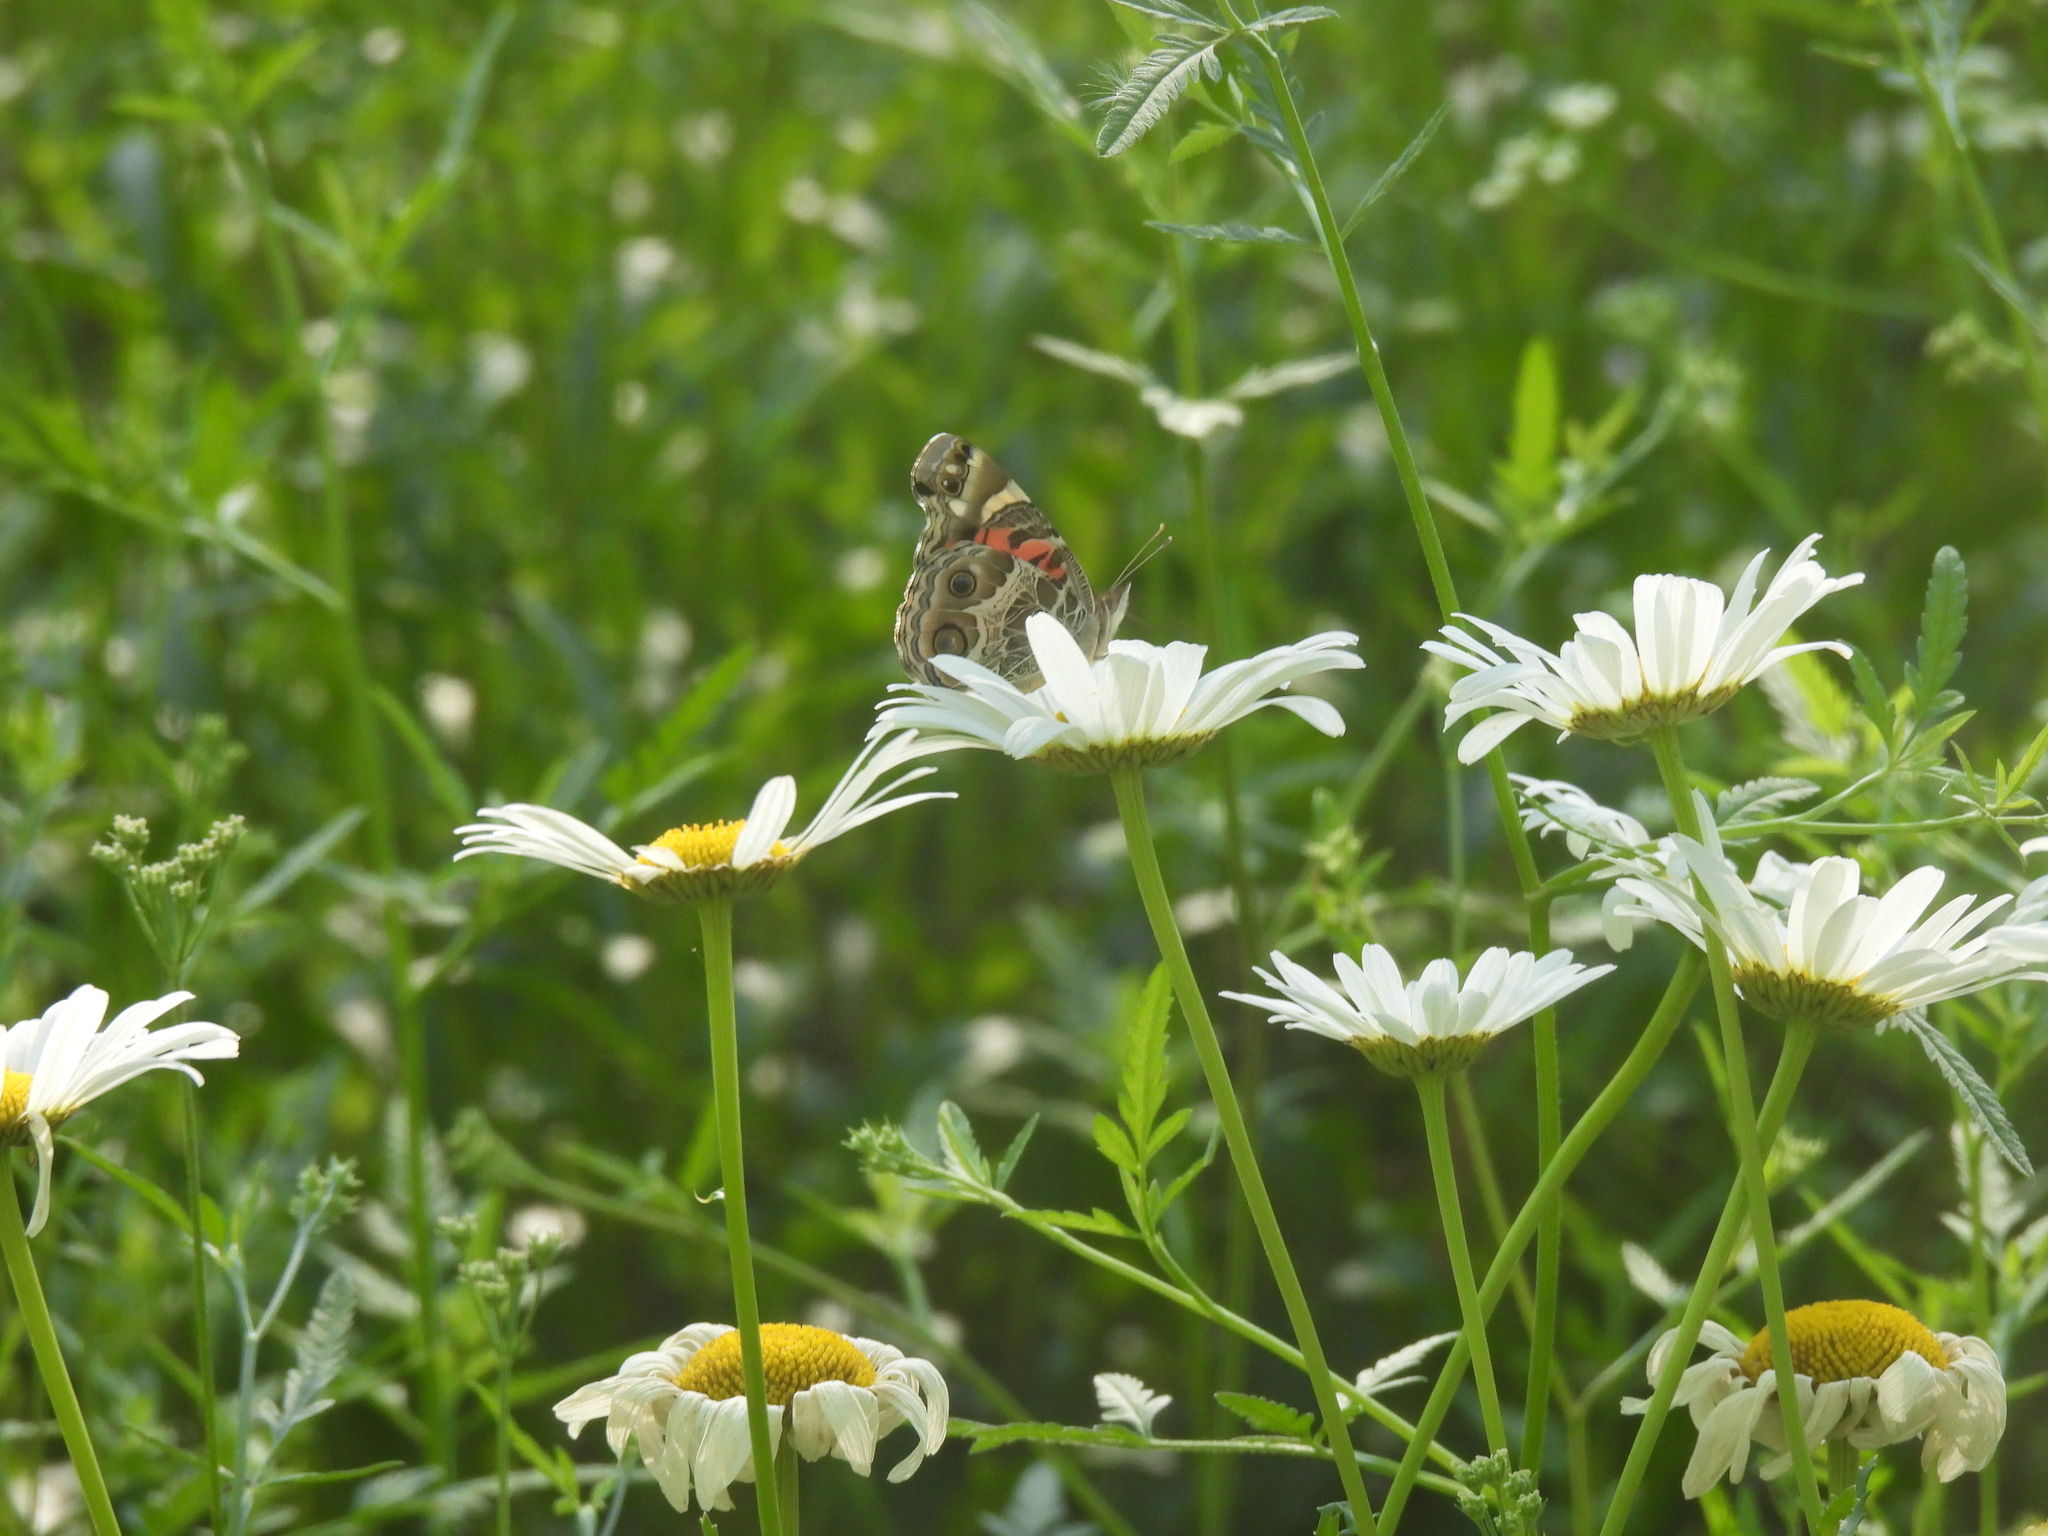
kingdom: Animalia
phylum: Arthropoda
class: Insecta
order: Lepidoptera
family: Nymphalidae
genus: Vanessa
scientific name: Vanessa virginiensis
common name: American lady
